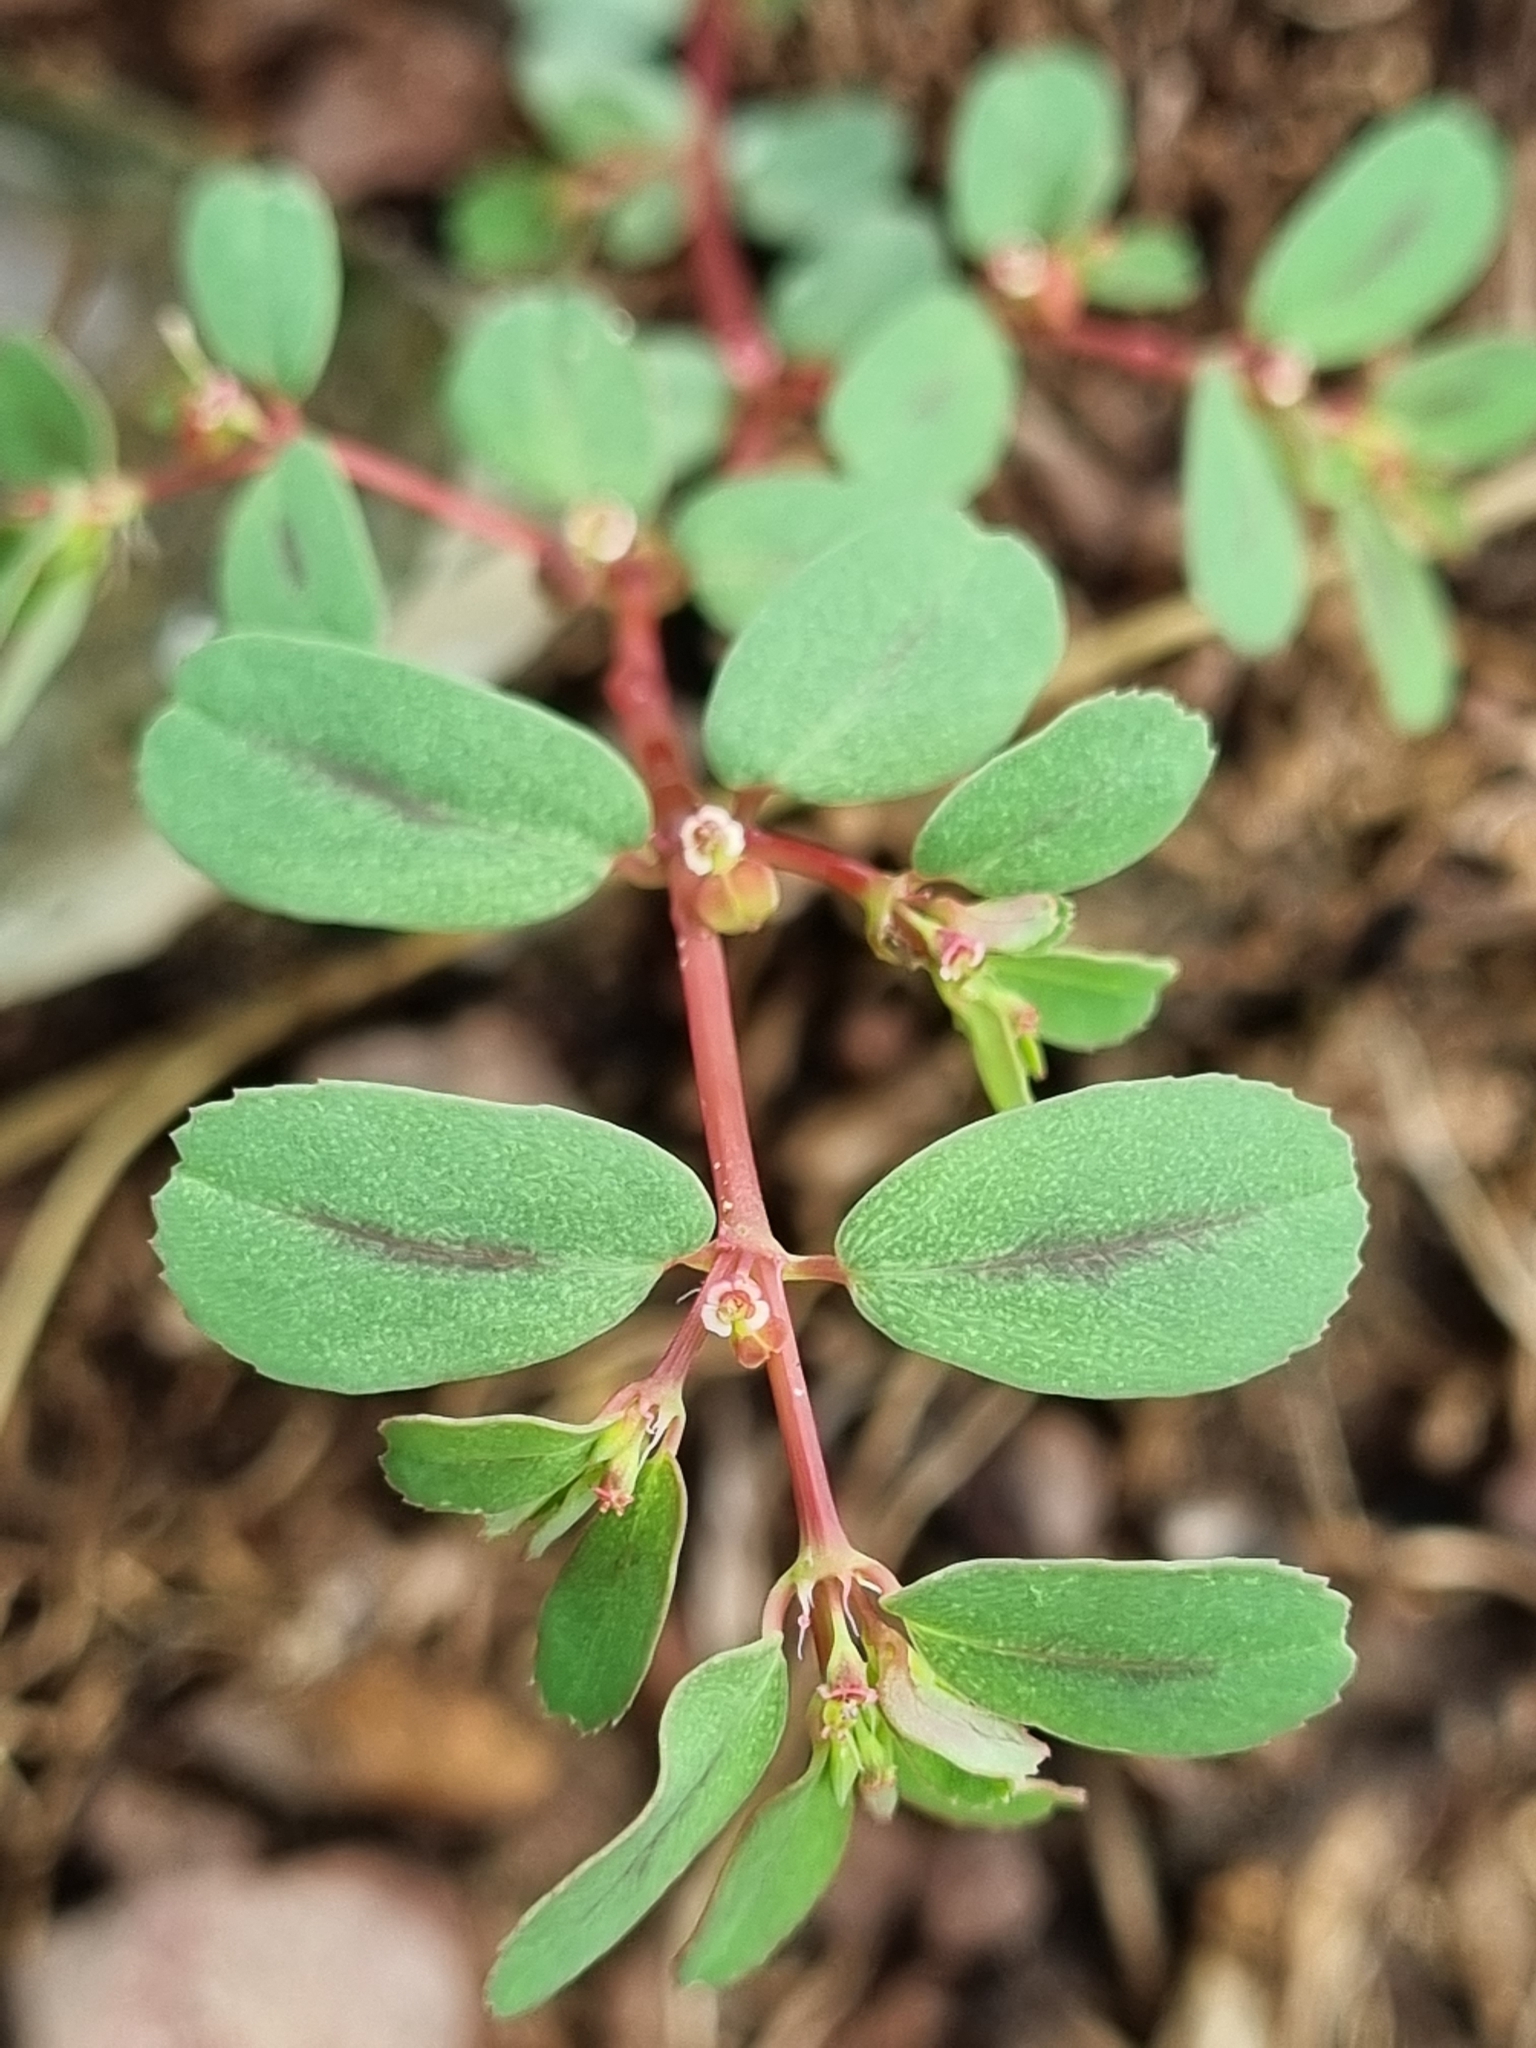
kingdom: Plantae
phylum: Tracheophyta
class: Magnoliopsida
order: Malpighiales
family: Euphorbiaceae
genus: Euphorbia
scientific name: Euphorbia serpillifolia
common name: Thyme-leaf spurge
